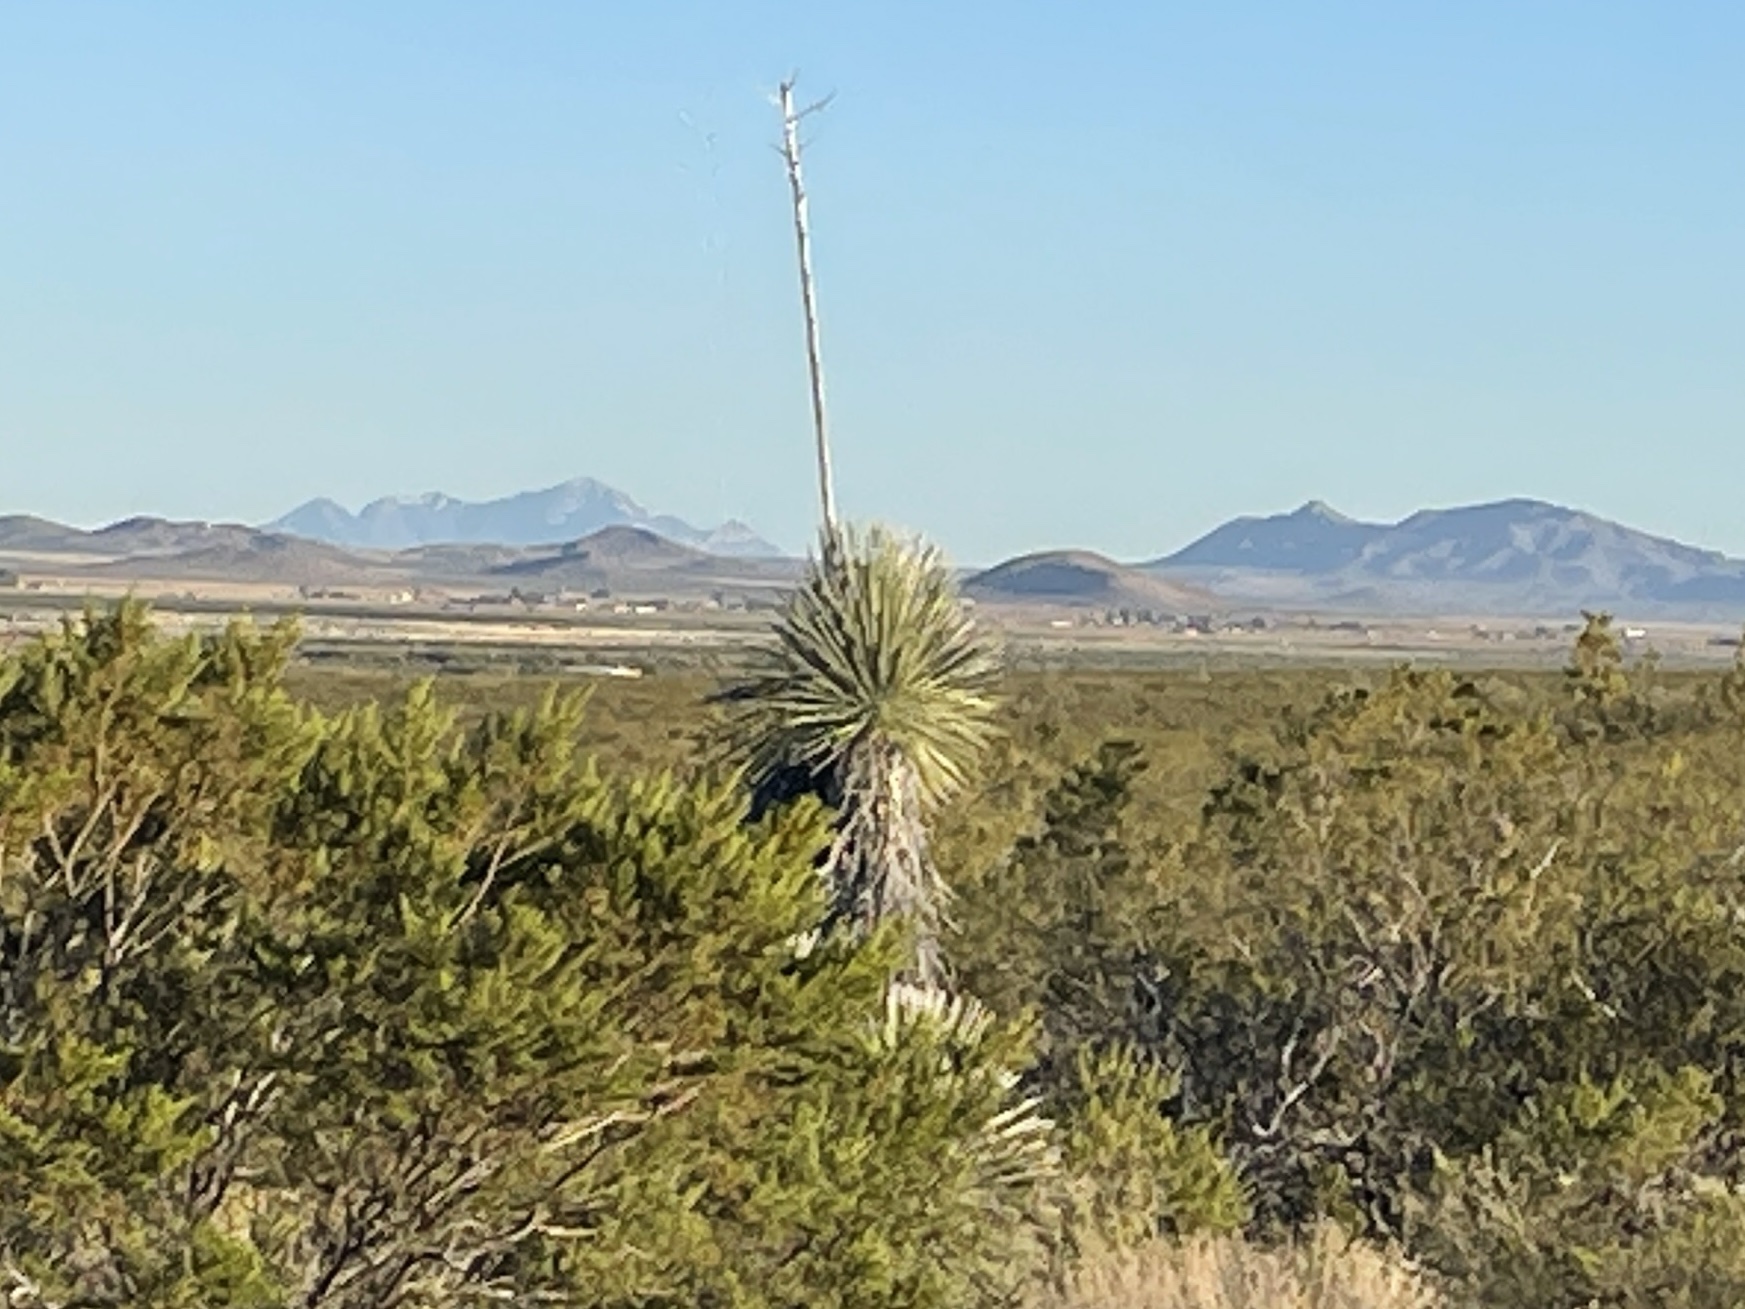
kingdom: Plantae
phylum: Tracheophyta
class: Liliopsida
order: Asparagales
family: Asparagaceae
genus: Yucca
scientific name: Yucca elata
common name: Palmella
